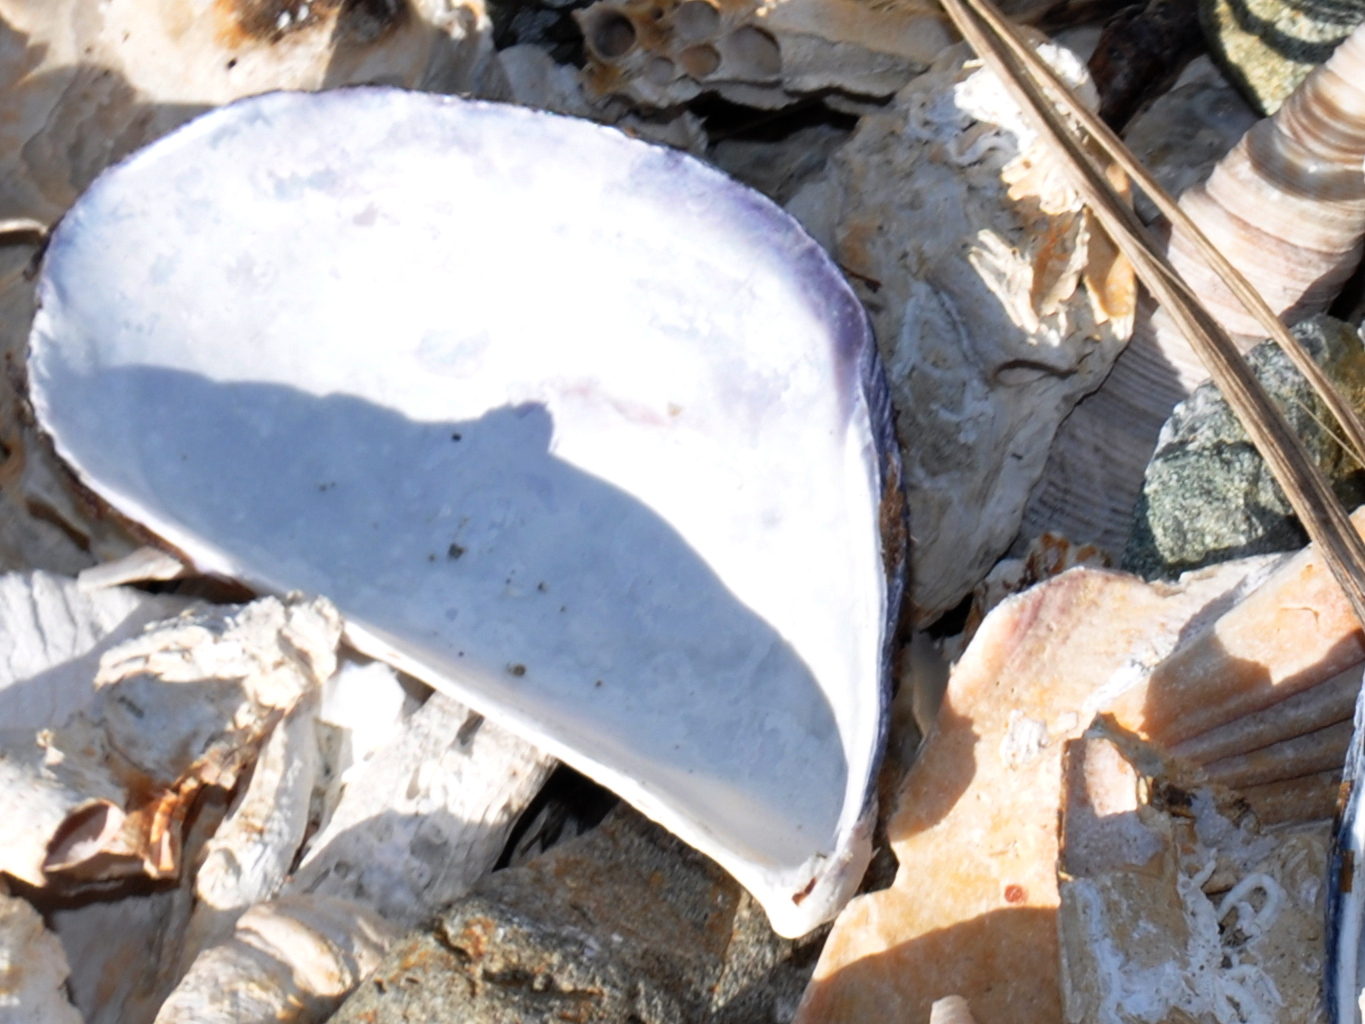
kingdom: Animalia
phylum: Mollusca
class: Bivalvia
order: Mytilida
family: Mytilidae
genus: Mytilus
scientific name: Mytilus planulatus
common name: Australian mussel
